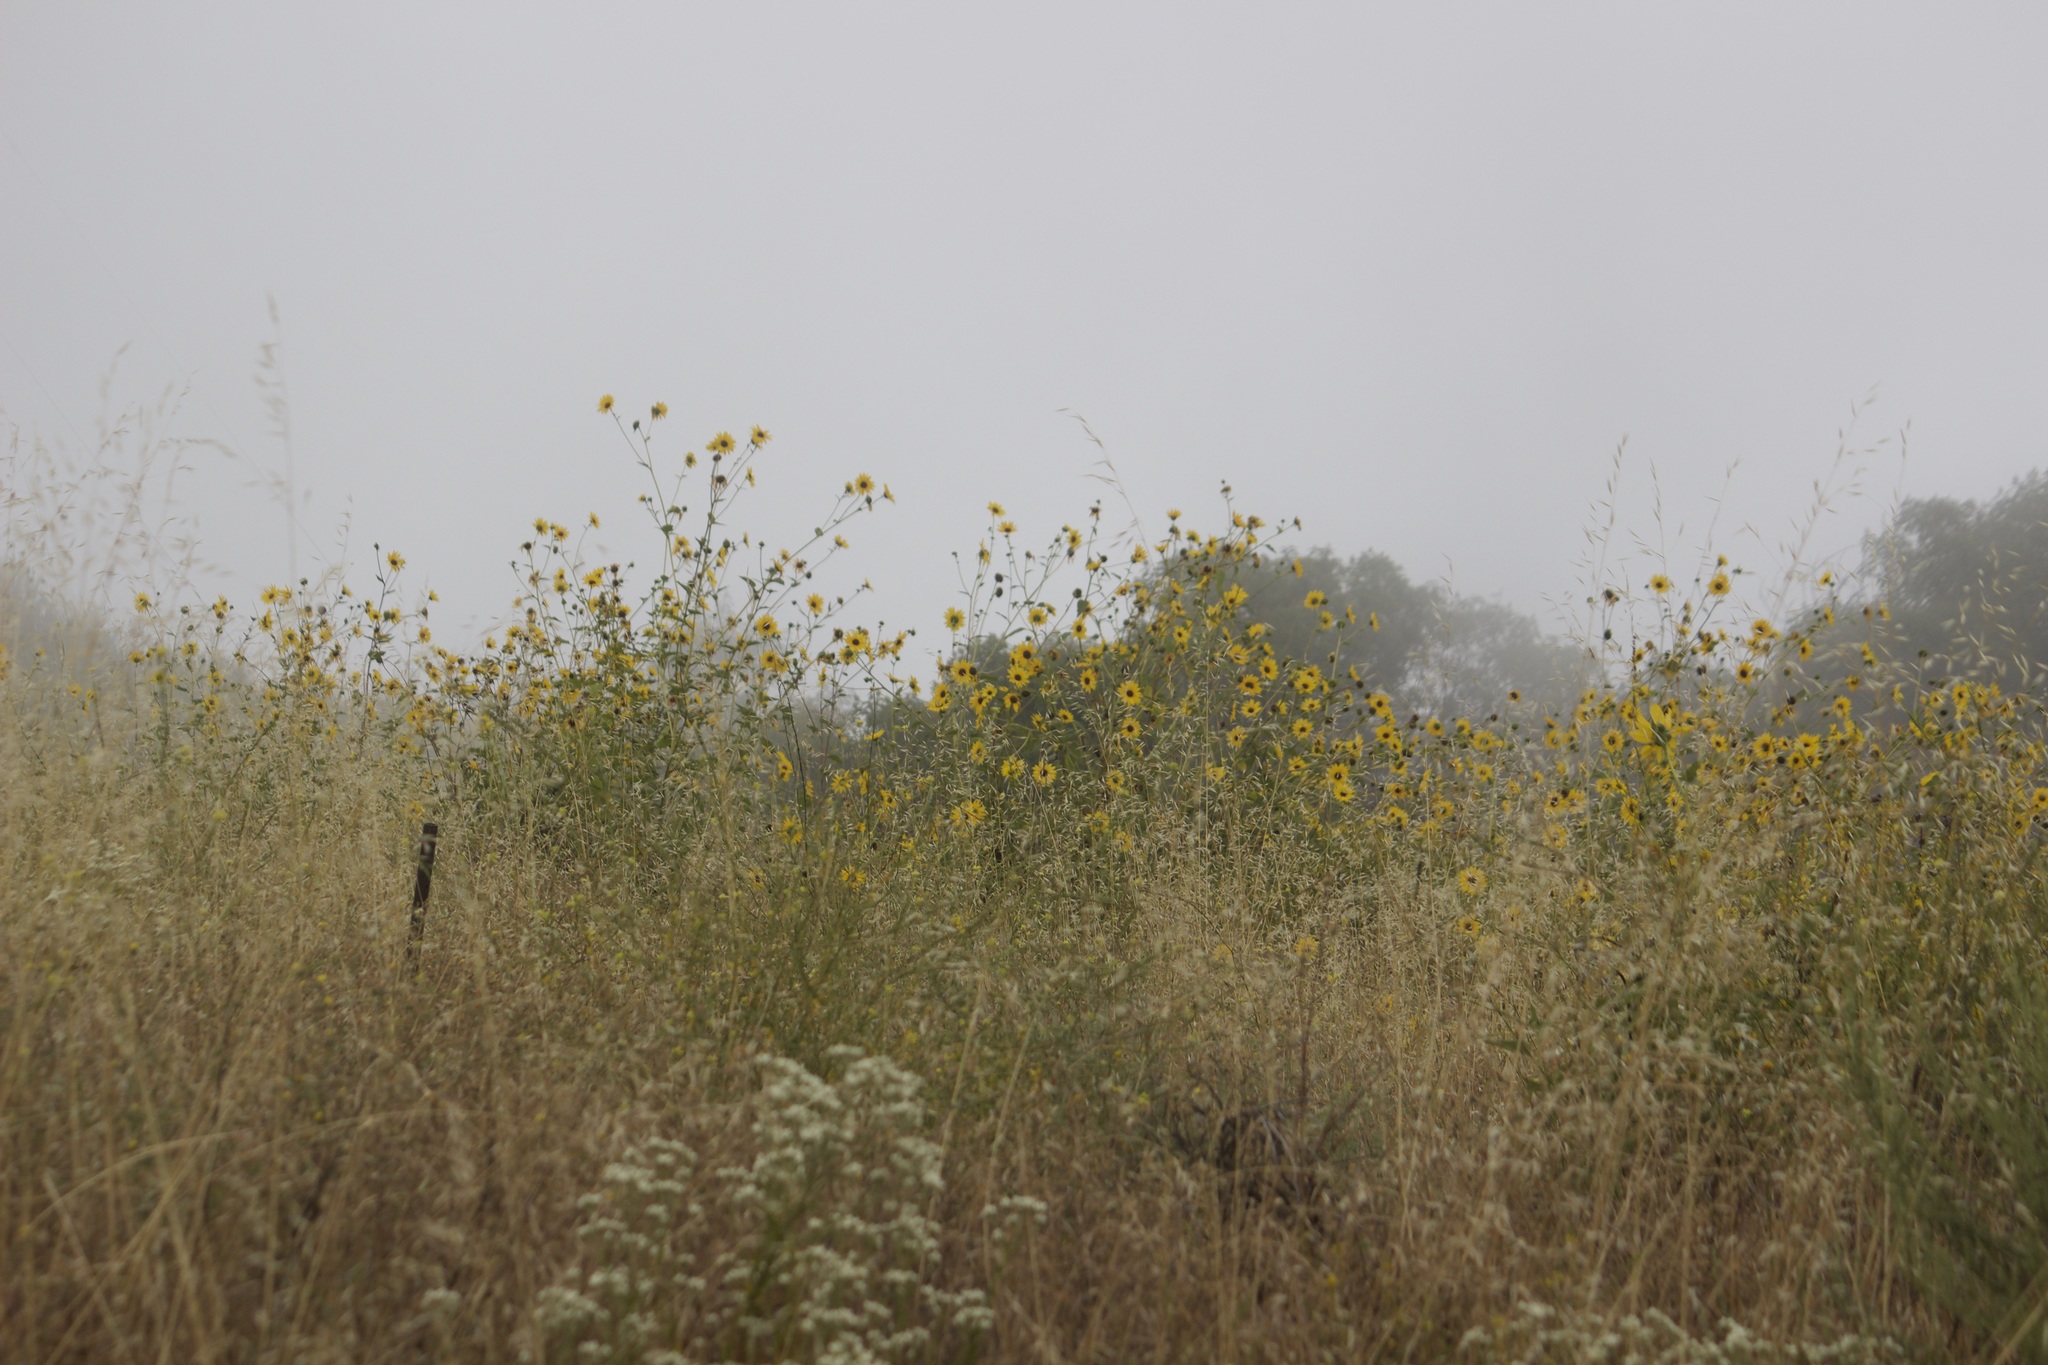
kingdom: Plantae
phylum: Tracheophyta
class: Magnoliopsida
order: Asterales
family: Asteraceae
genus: Helianthus
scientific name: Helianthus annuus
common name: Sunflower
